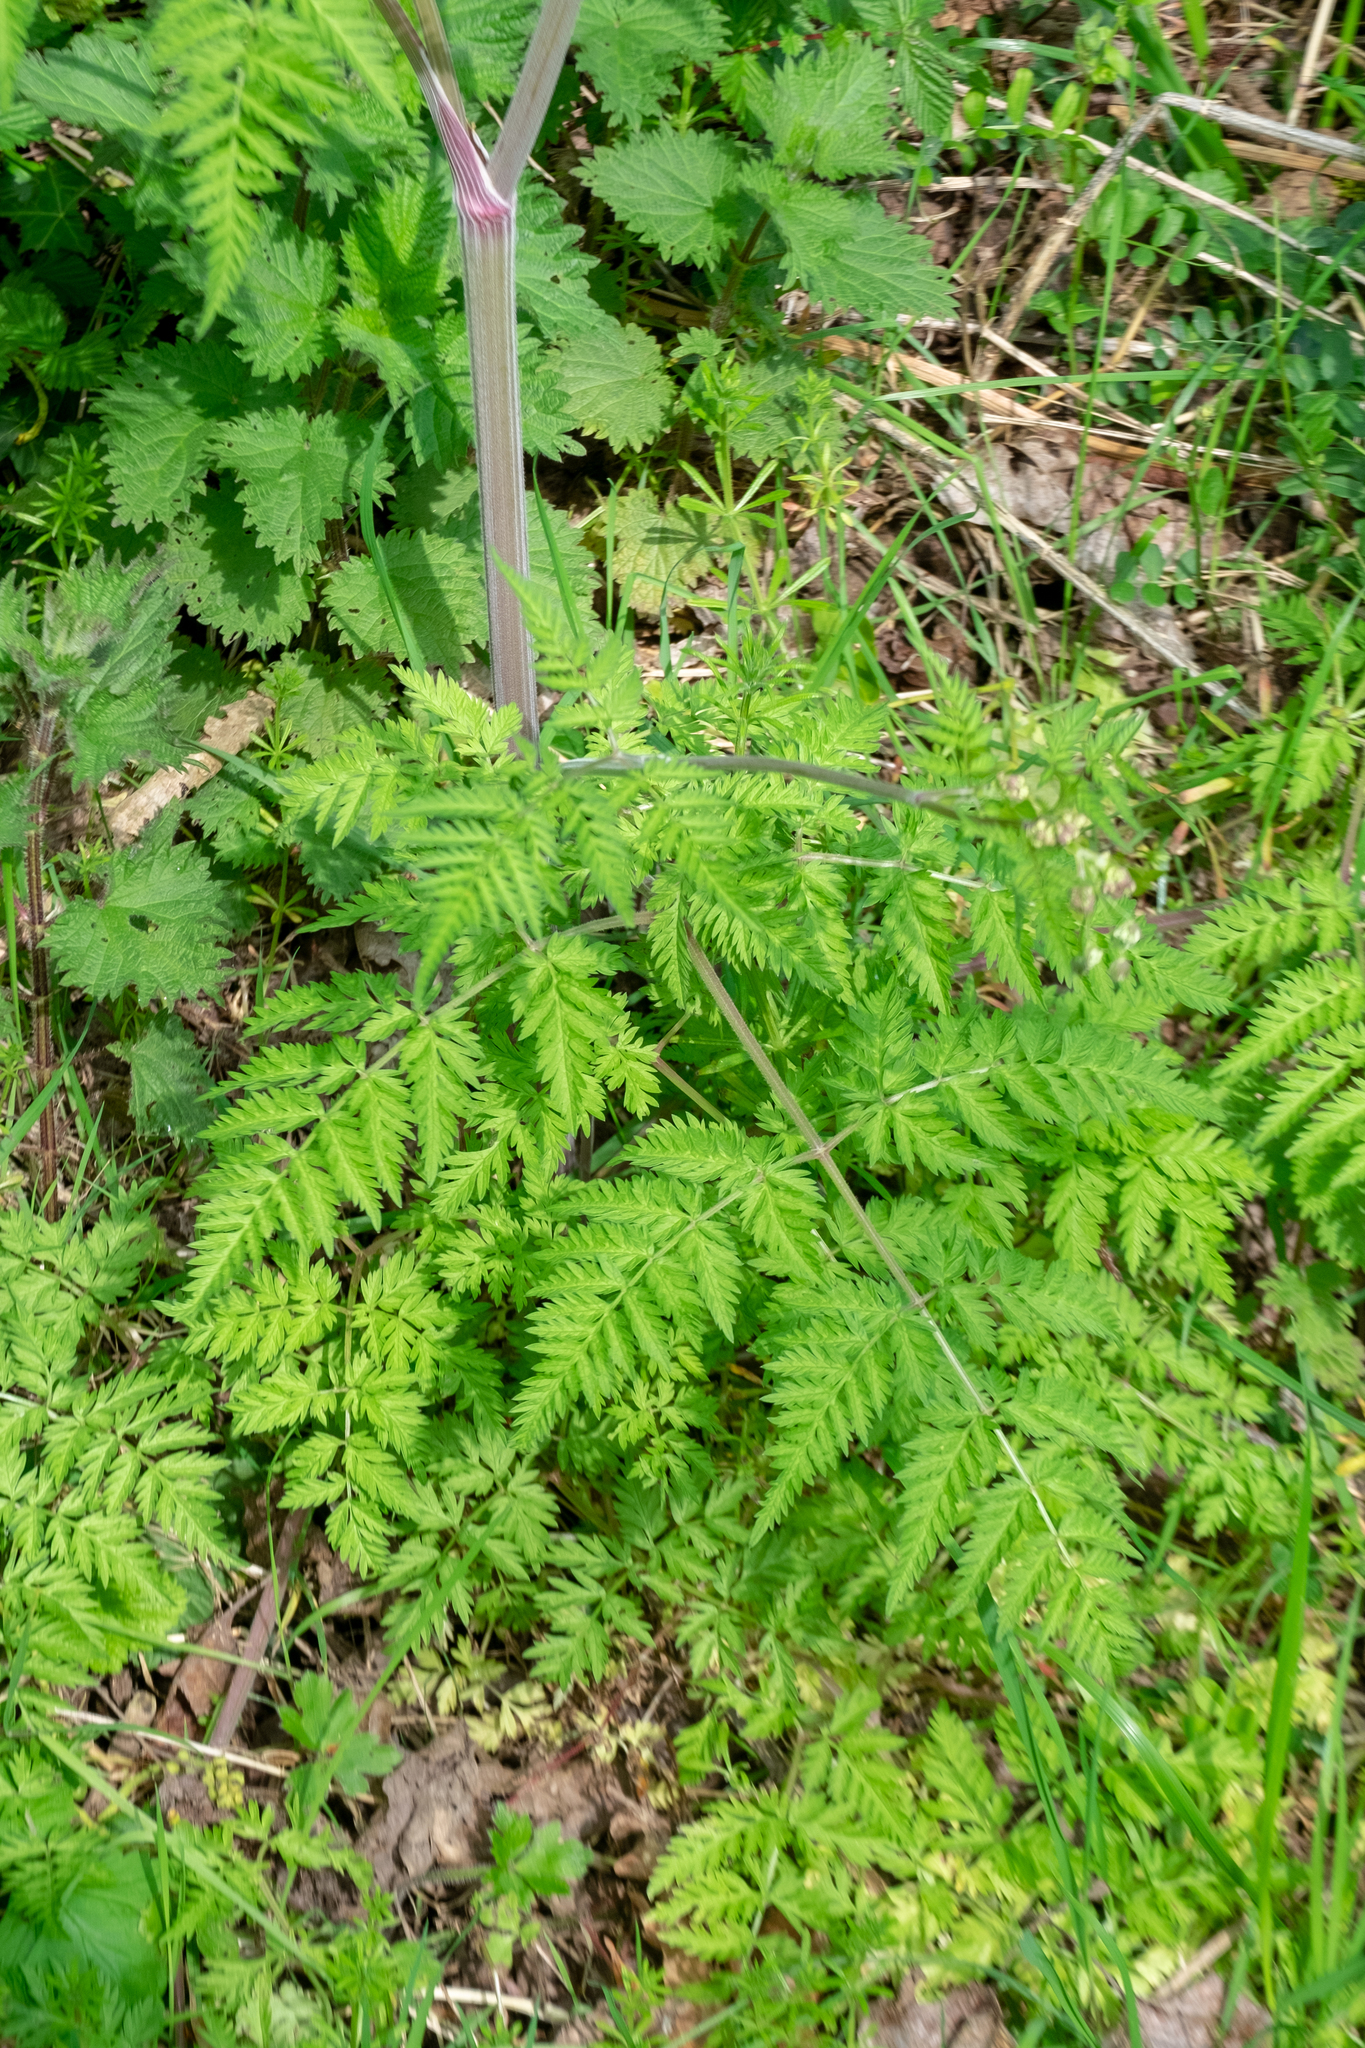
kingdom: Plantae
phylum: Tracheophyta
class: Magnoliopsida
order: Apiales
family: Apiaceae
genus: Anthriscus
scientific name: Anthriscus sylvestris
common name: Cow parsley
